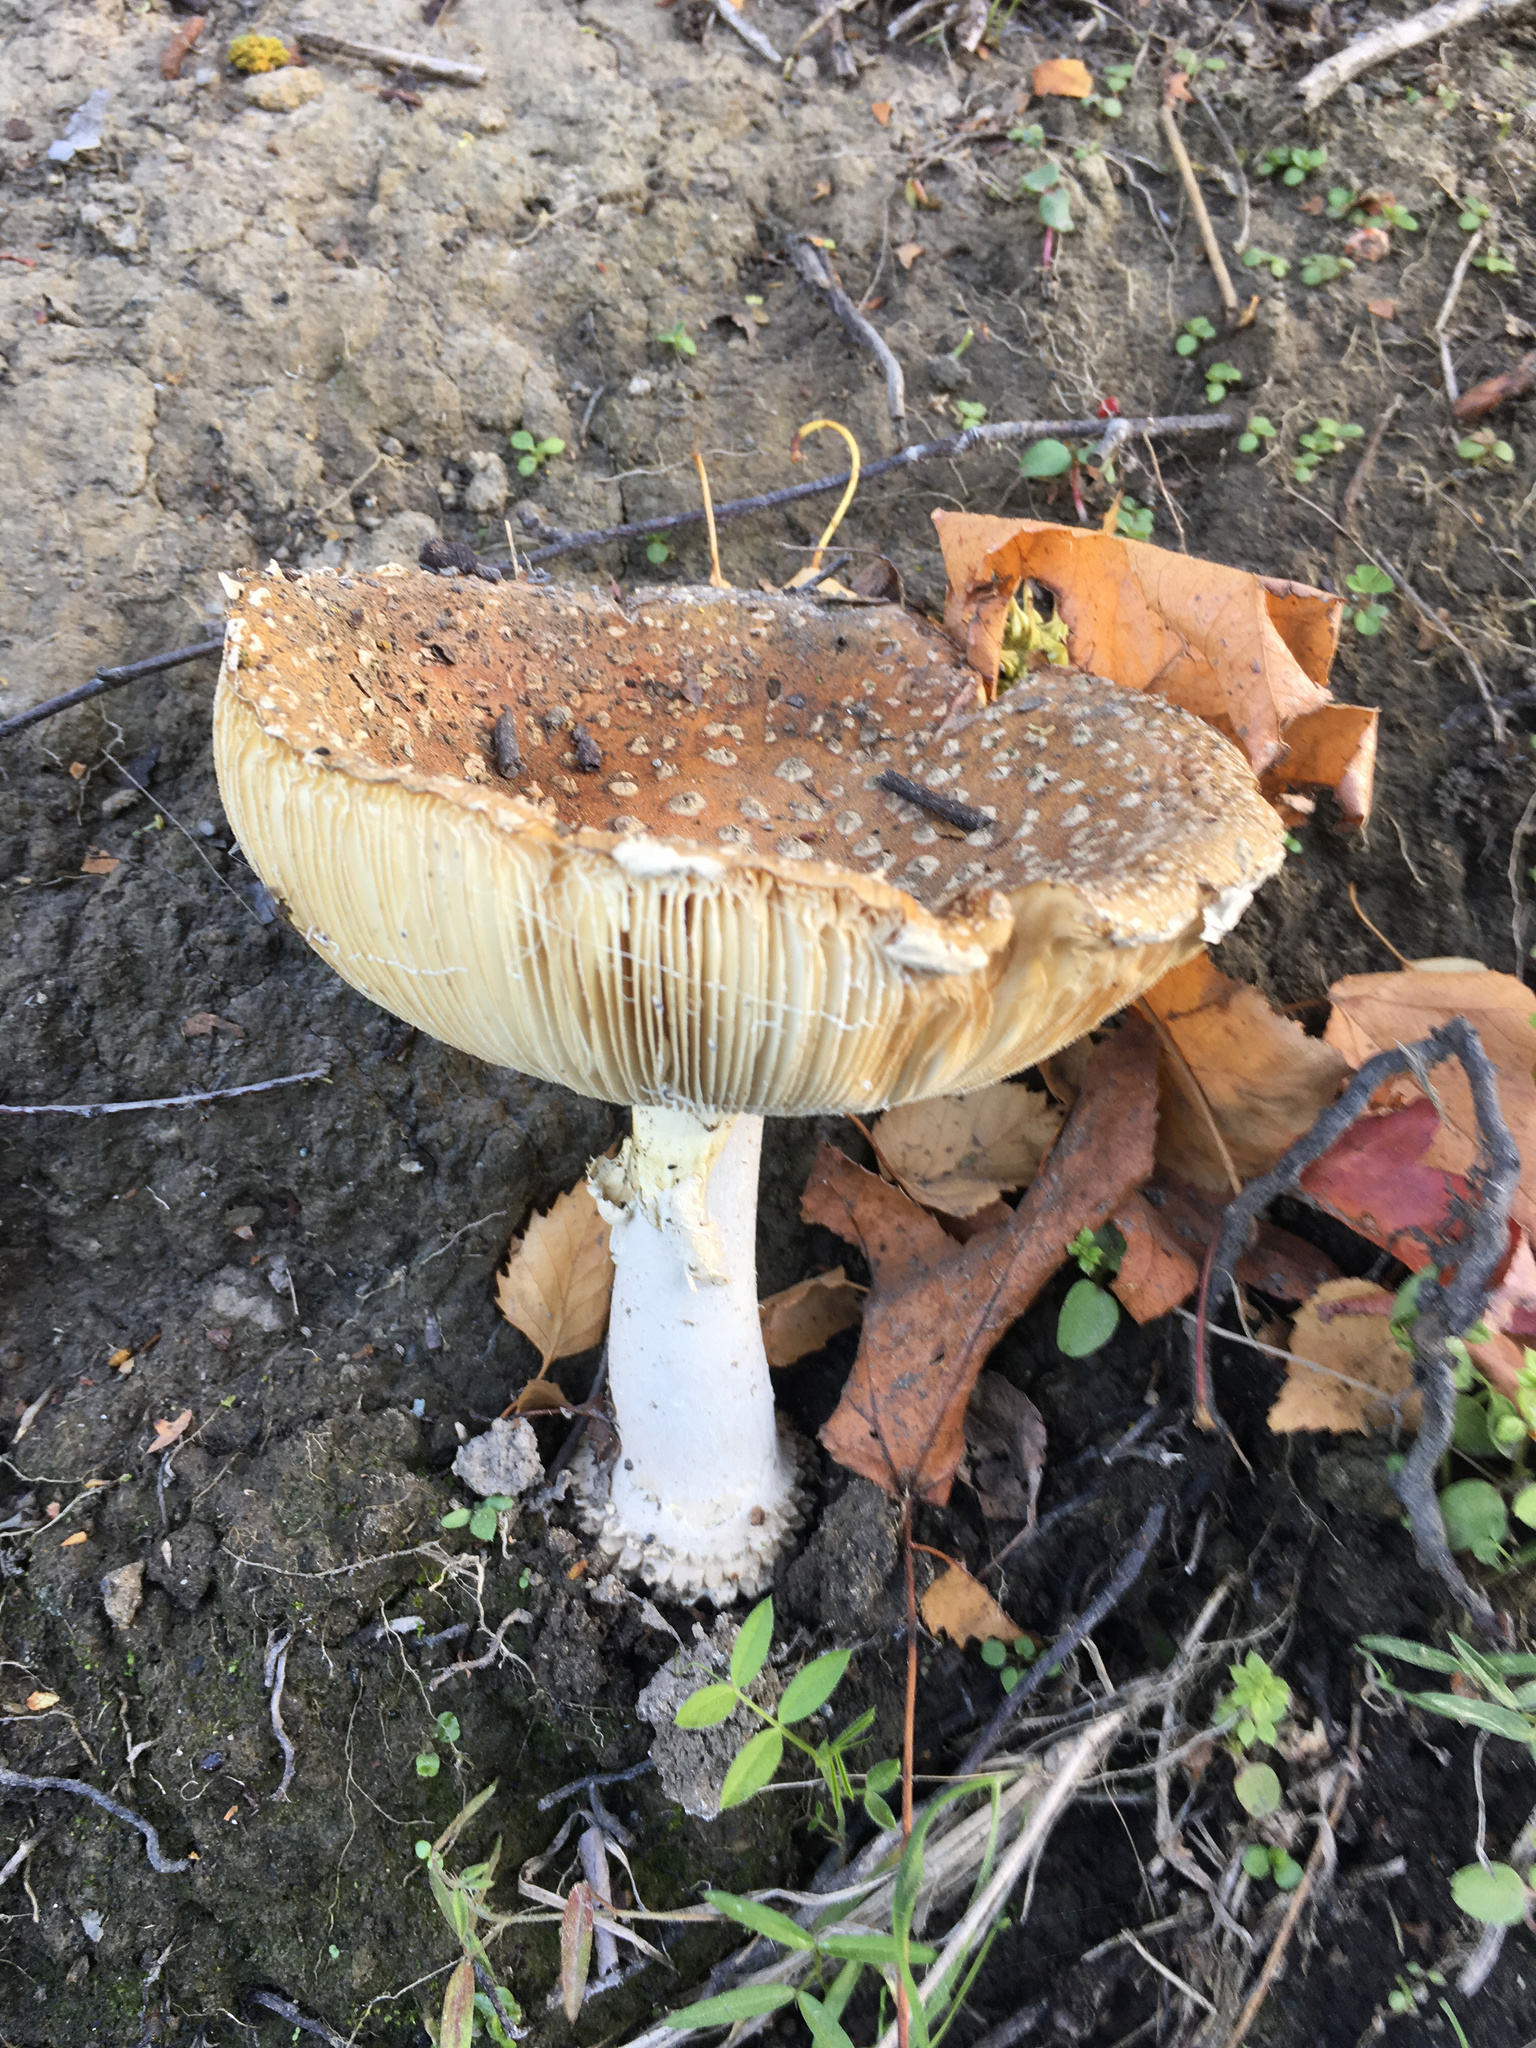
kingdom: Fungi
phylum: Basidiomycota
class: Agaricomycetes
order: Agaricales
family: Amanitaceae
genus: Amanita
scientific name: Amanita muscaria
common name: Fly agaric
